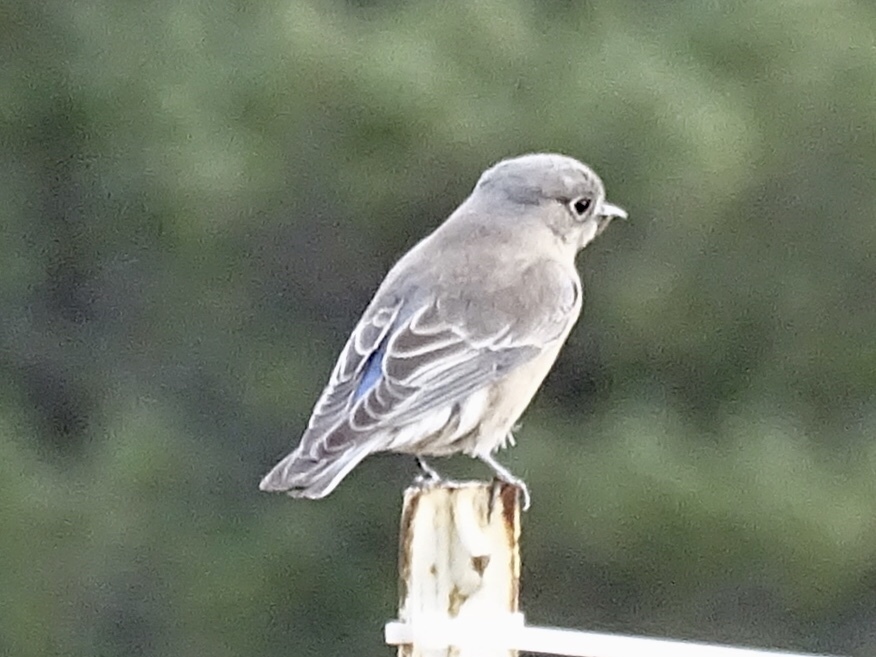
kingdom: Animalia
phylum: Chordata
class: Aves
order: Passeriformes
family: Turdidae
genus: Sialia
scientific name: Sialia currucoides
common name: Mountain bluebird
